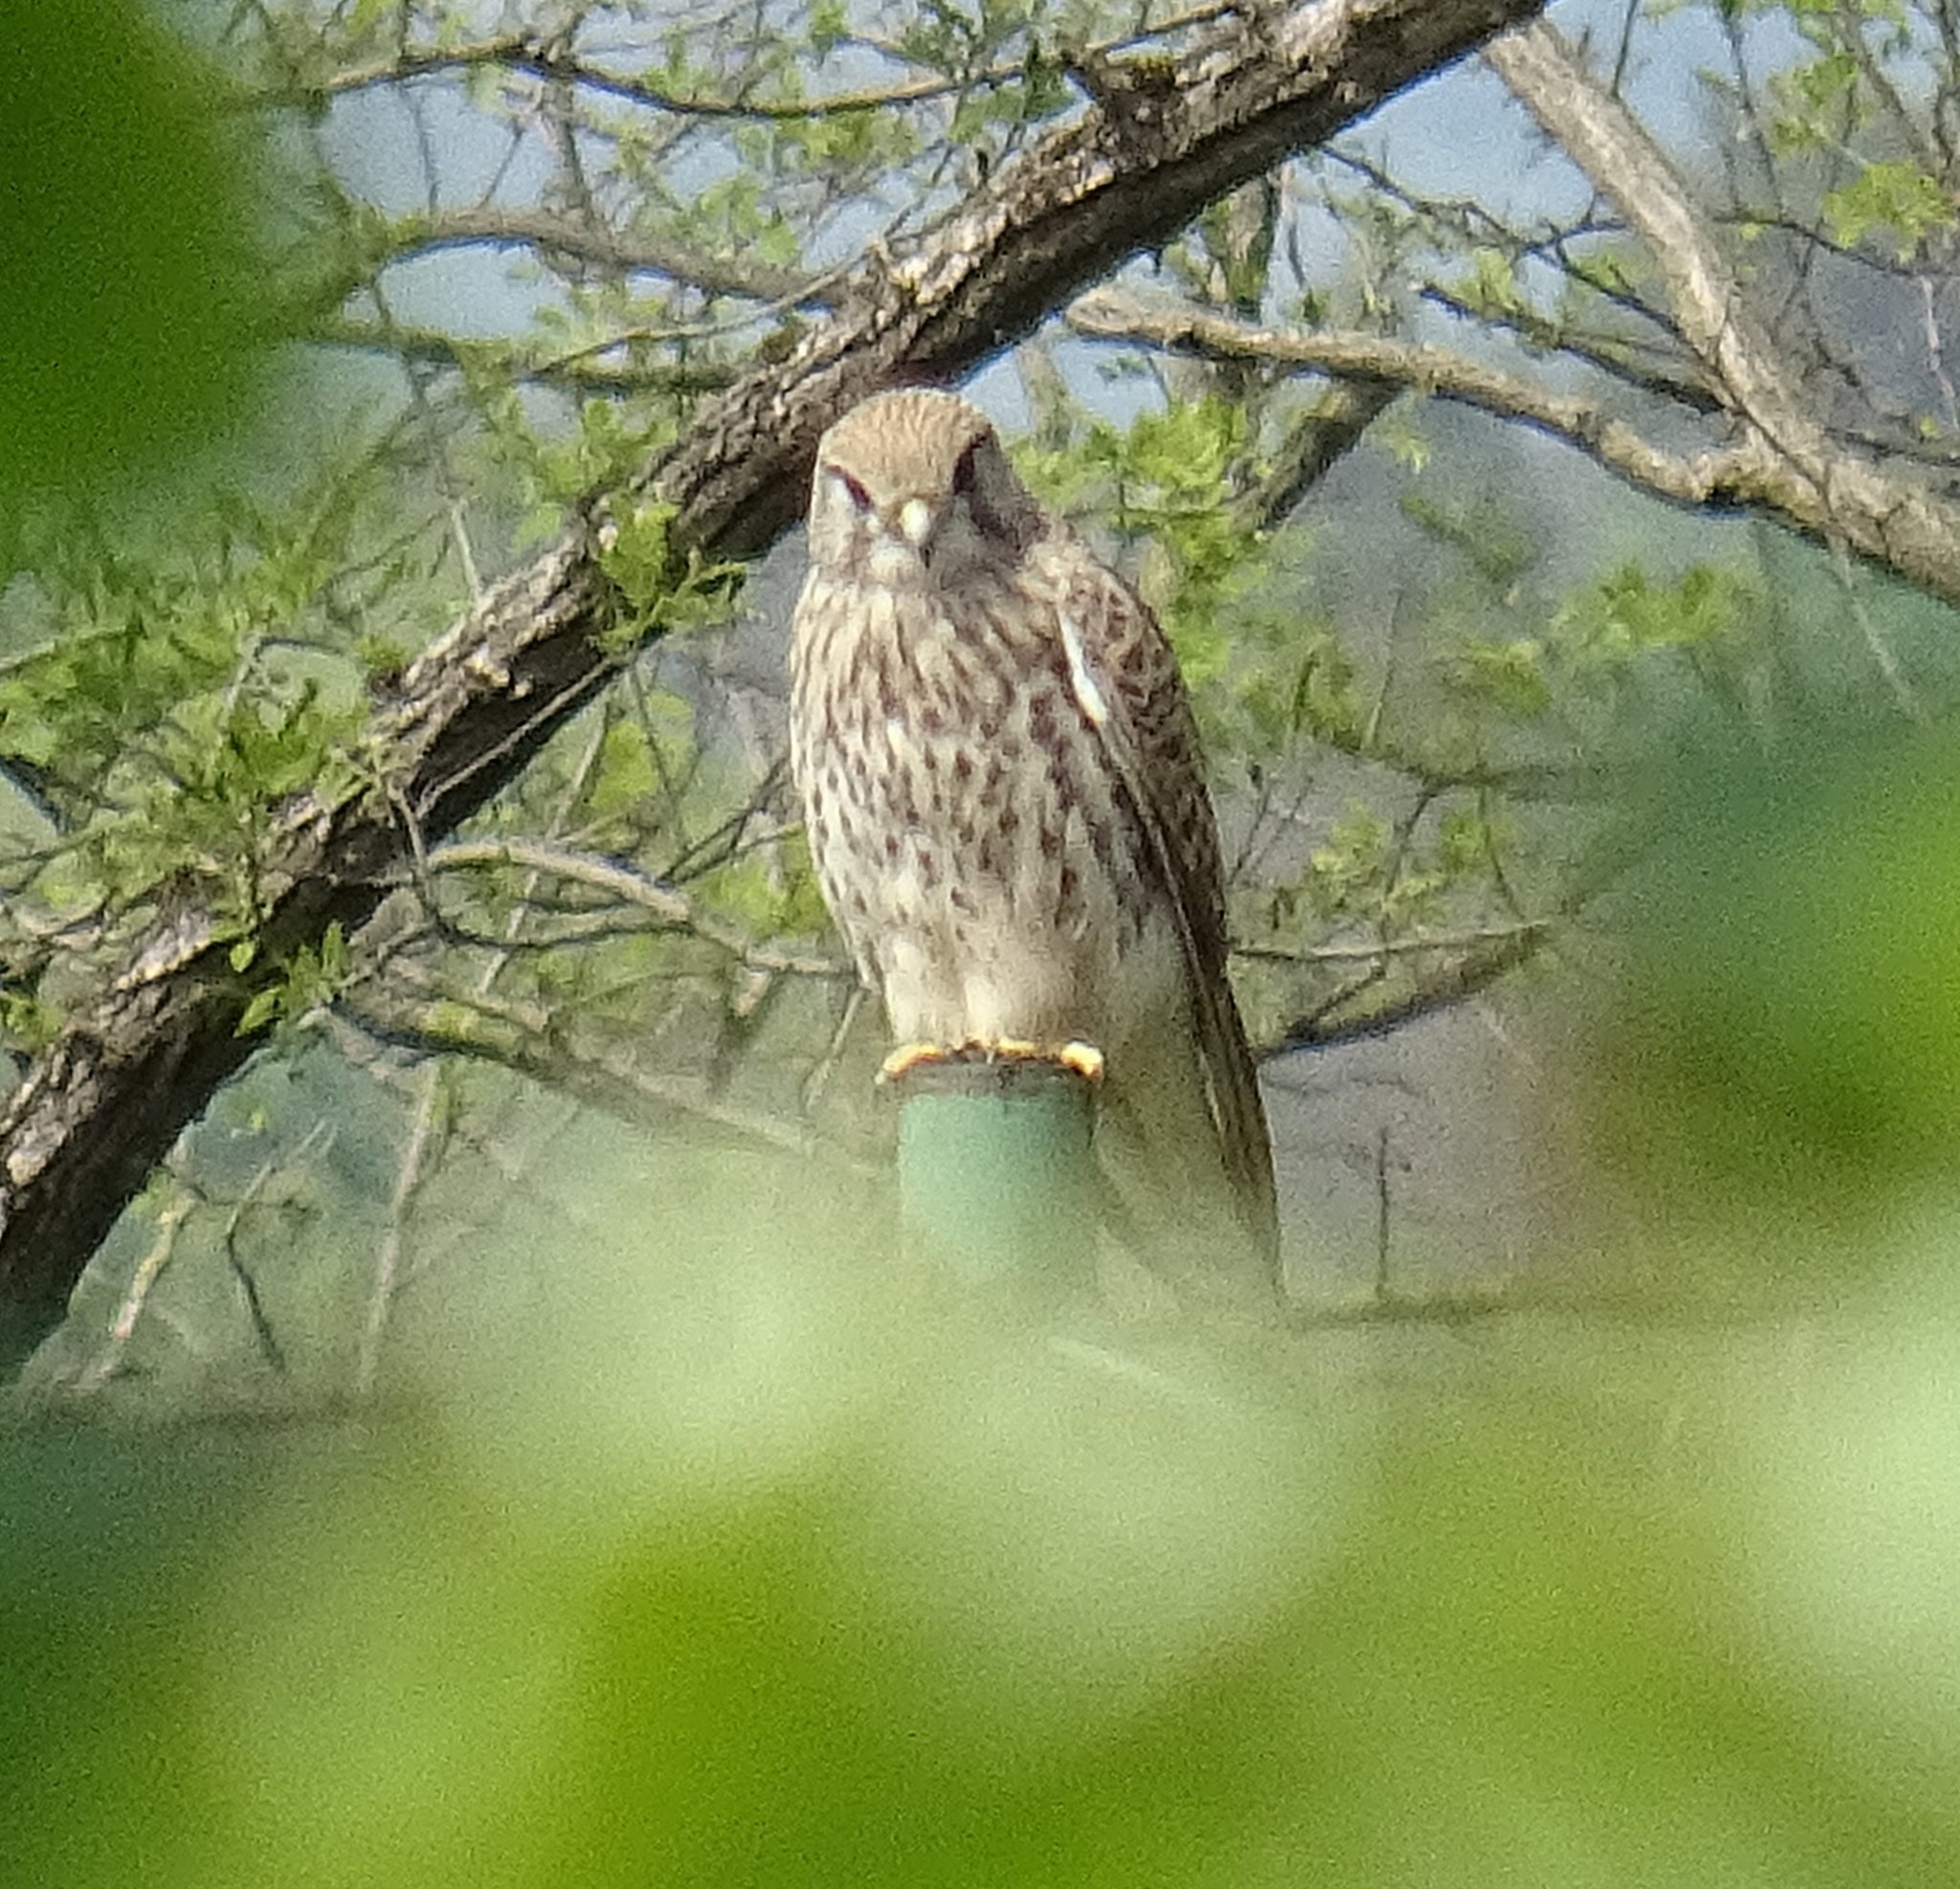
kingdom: Animalia
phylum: Chordata
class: Aves
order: Falconiformes
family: Falconidae
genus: Falco
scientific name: Falco tinnunculus
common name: Common kestrel
